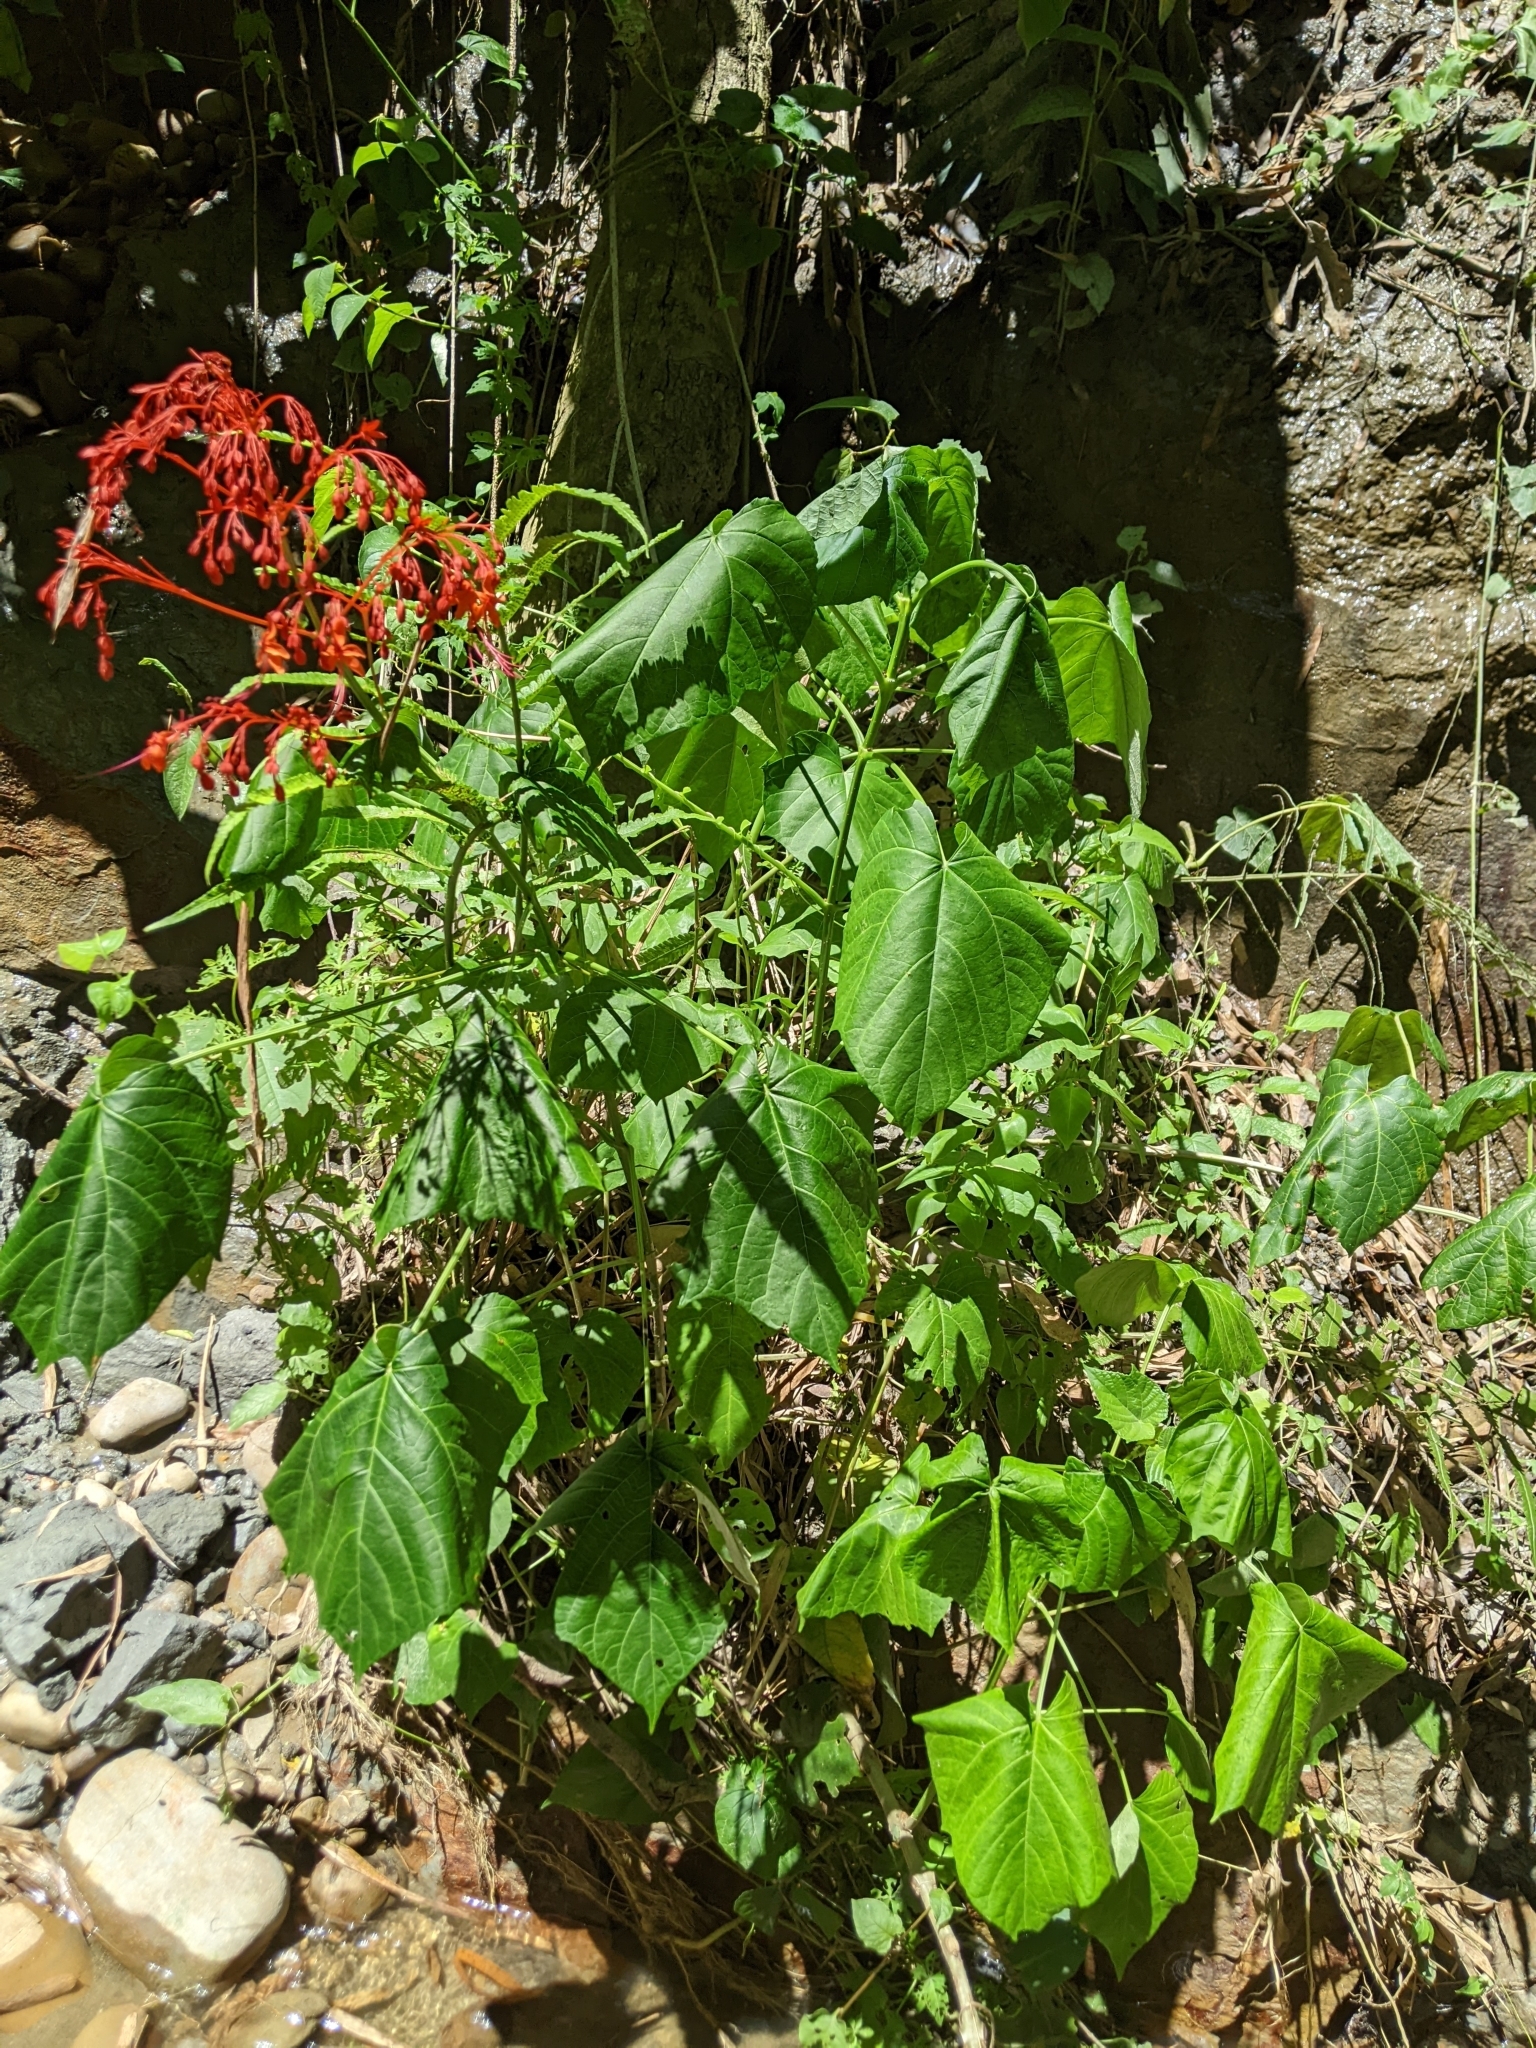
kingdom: Plantae
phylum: Tracheophyta
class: Magnoliopsida
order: Lamiales
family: Lamiaceae
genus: Clerodendrum
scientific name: Clerodendrum japonicum
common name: Japanese glorybower
